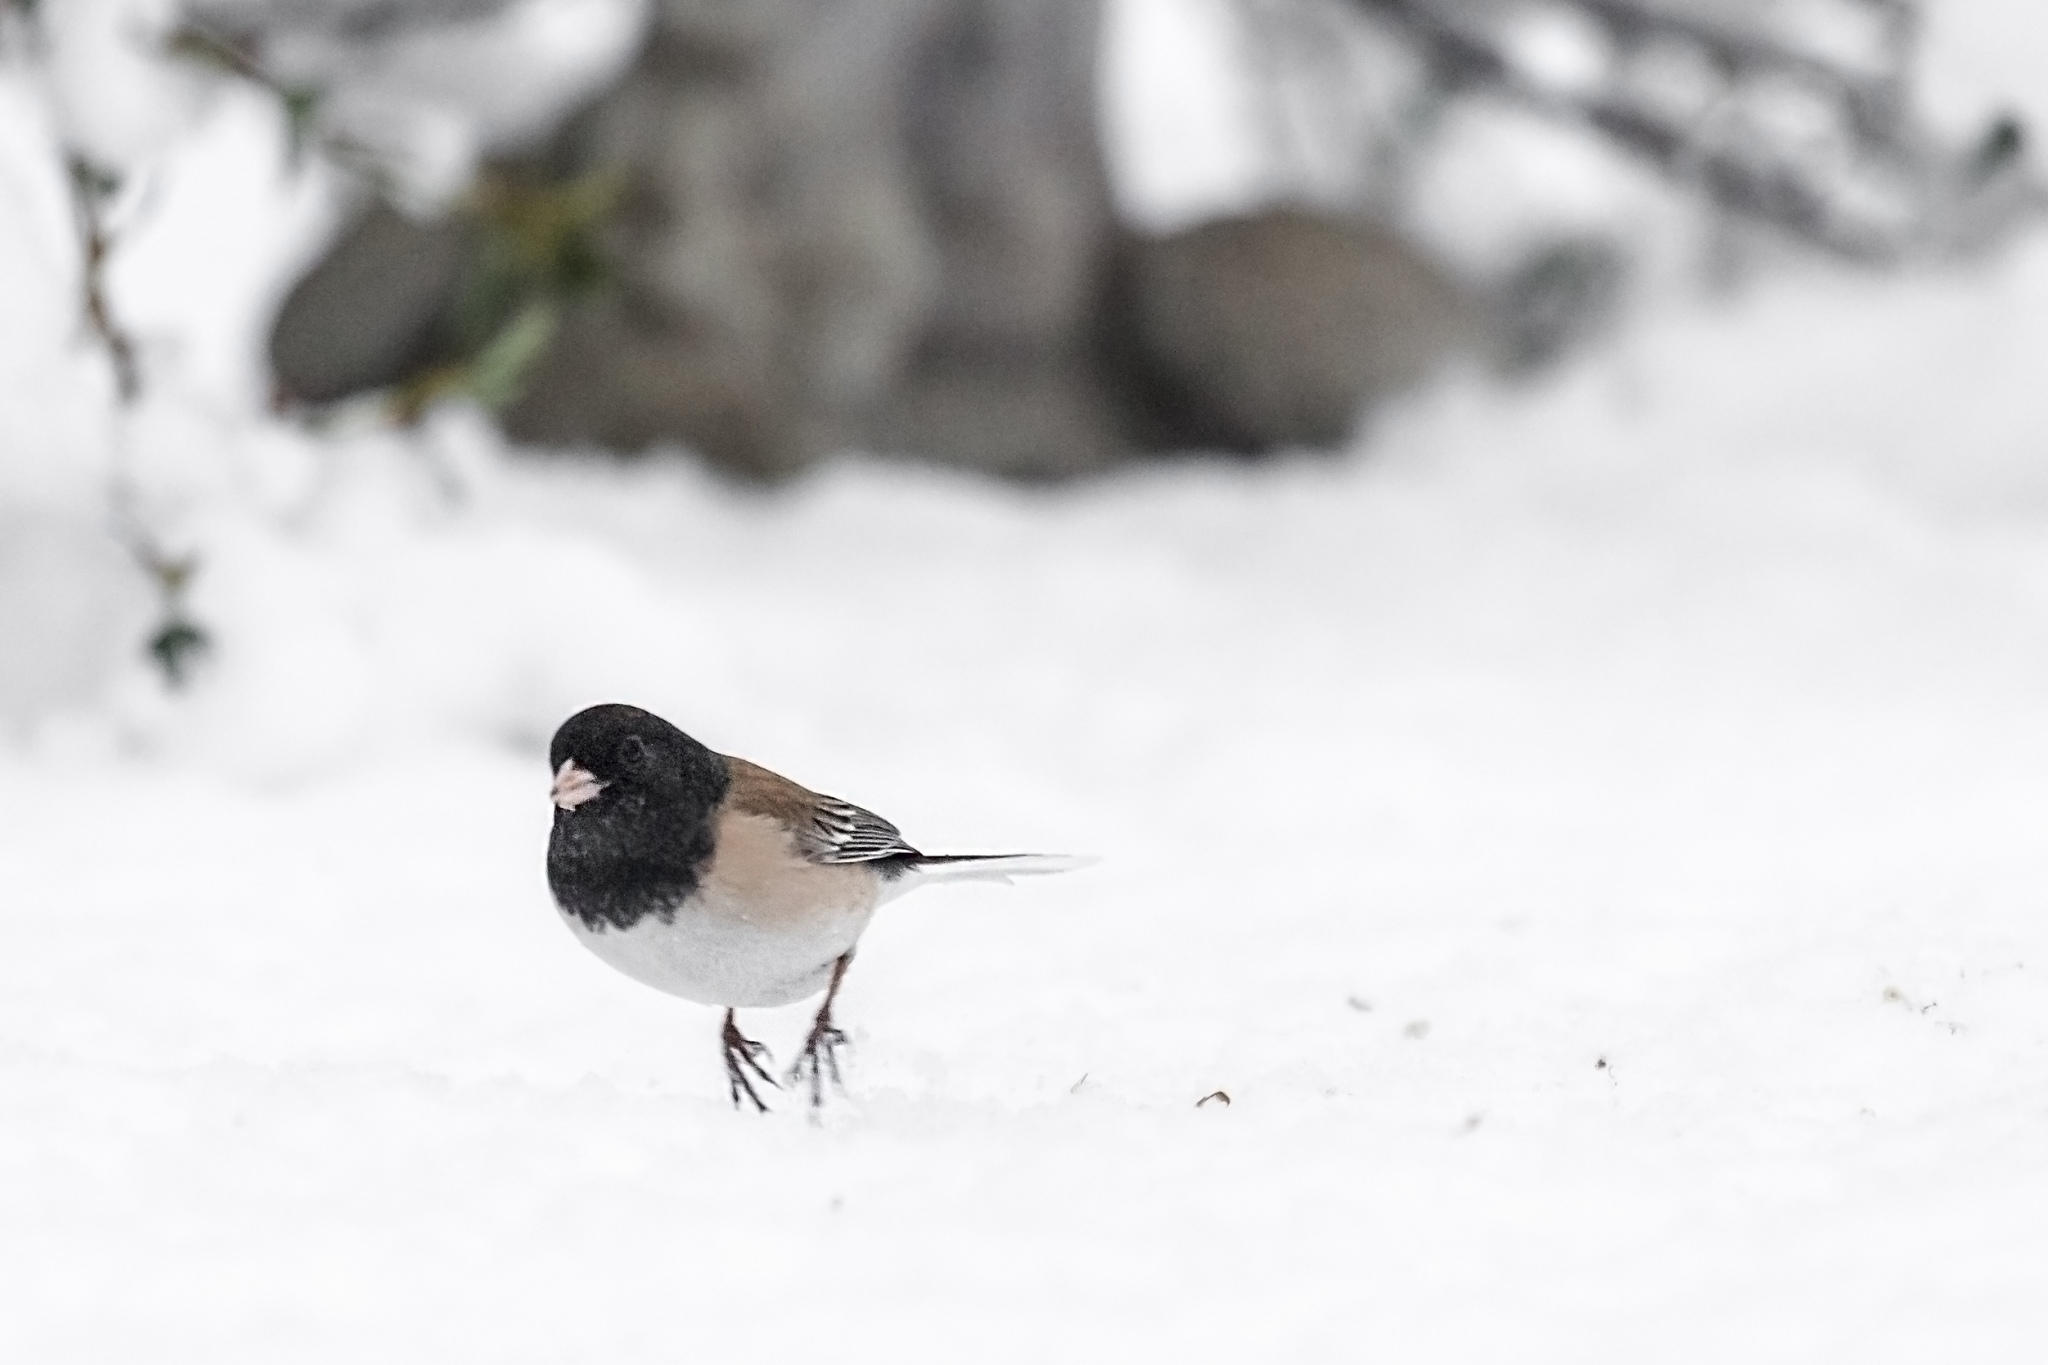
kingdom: Animalia
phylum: Chordata
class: Aves
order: Passeriformes
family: Passerellidae
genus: Junco
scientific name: Junco hyemalis
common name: Dark-eyed junco
